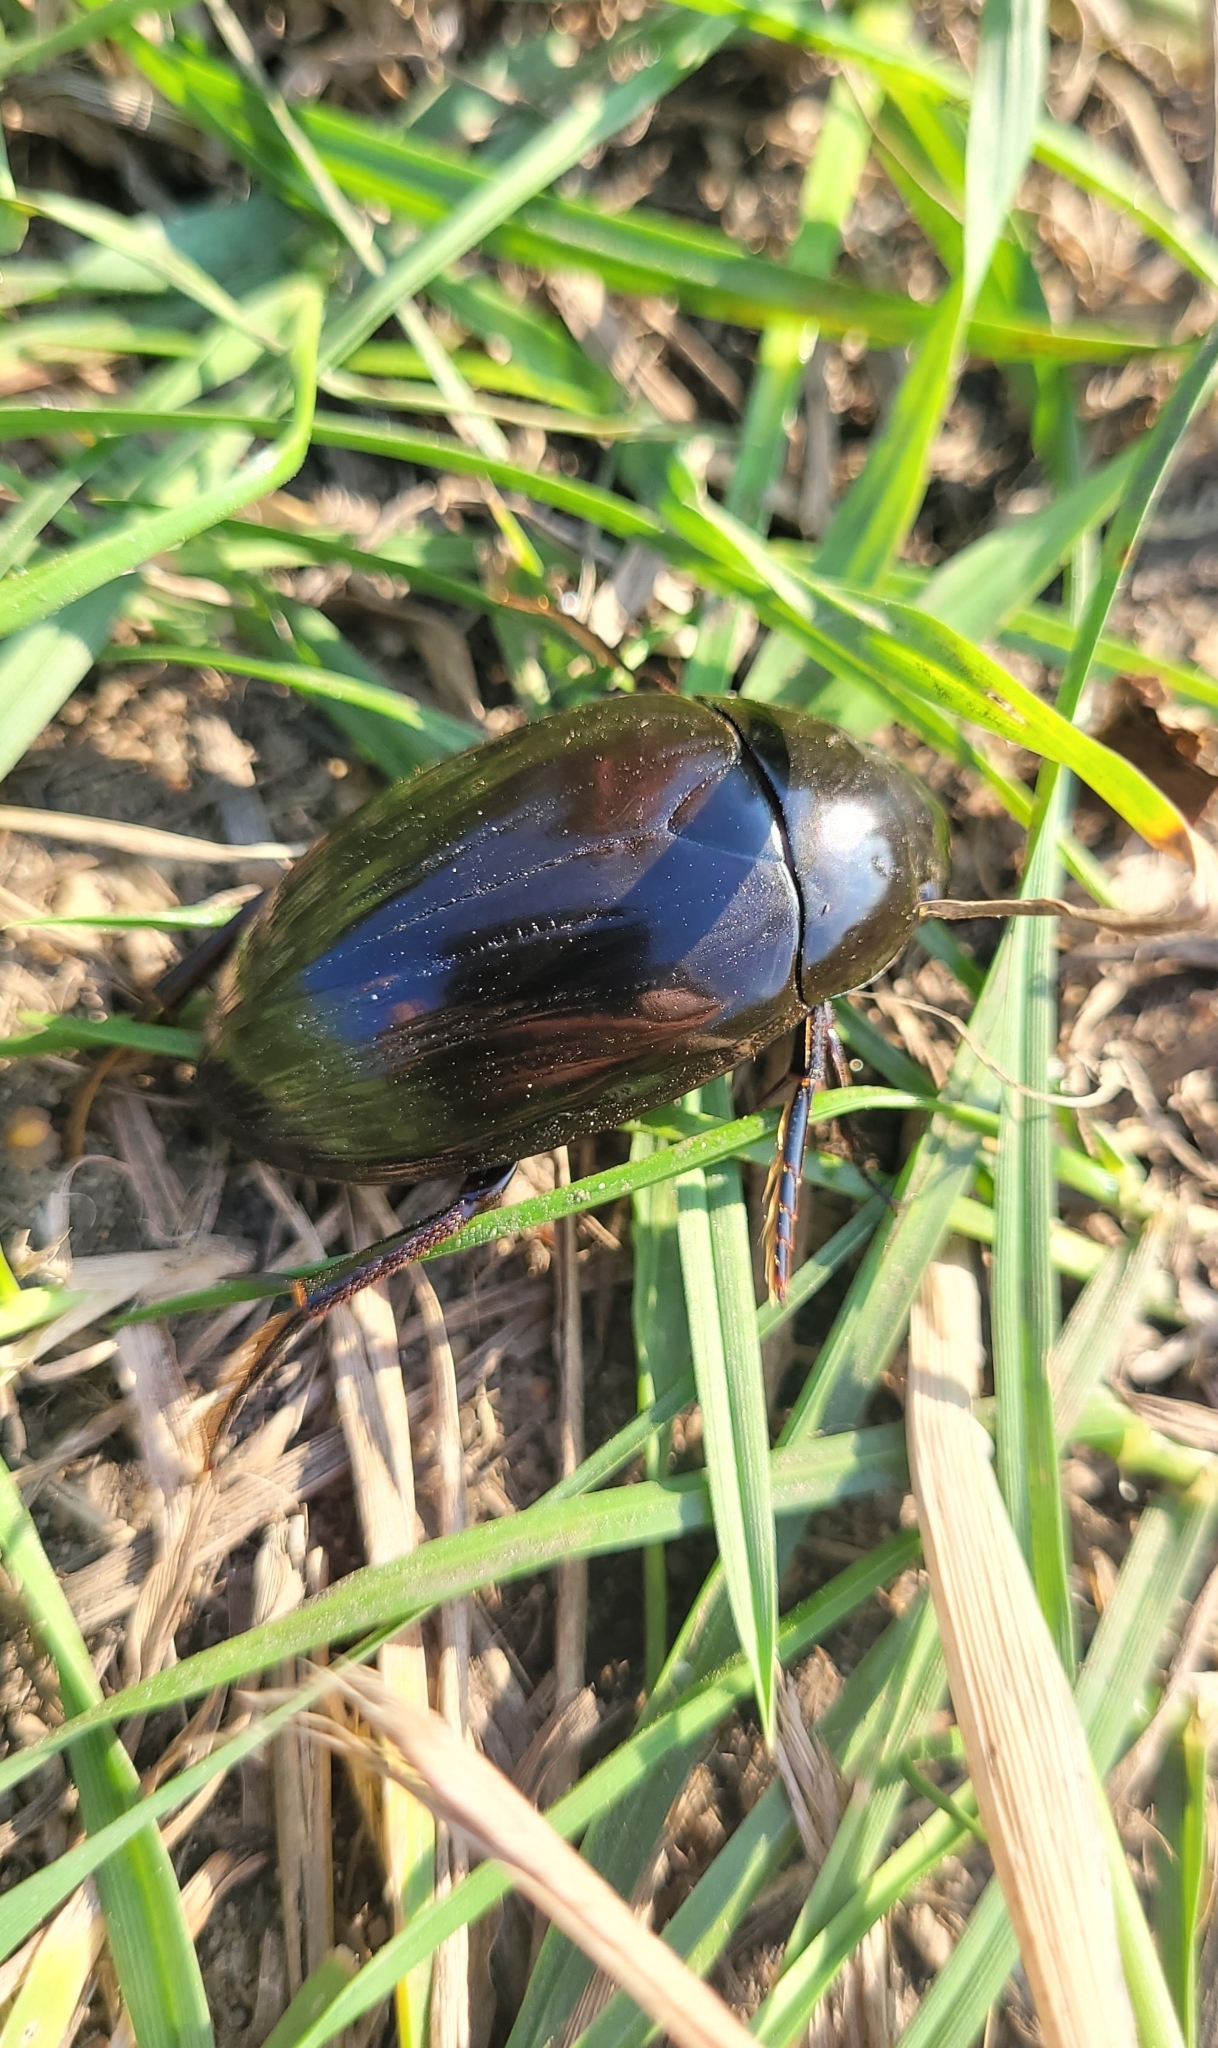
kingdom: Animalia
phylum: Arthropoda
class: Insecta
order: Coleoptera
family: Hydrophilidae
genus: Hydrophilus
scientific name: Hydrophilus aterrimus
